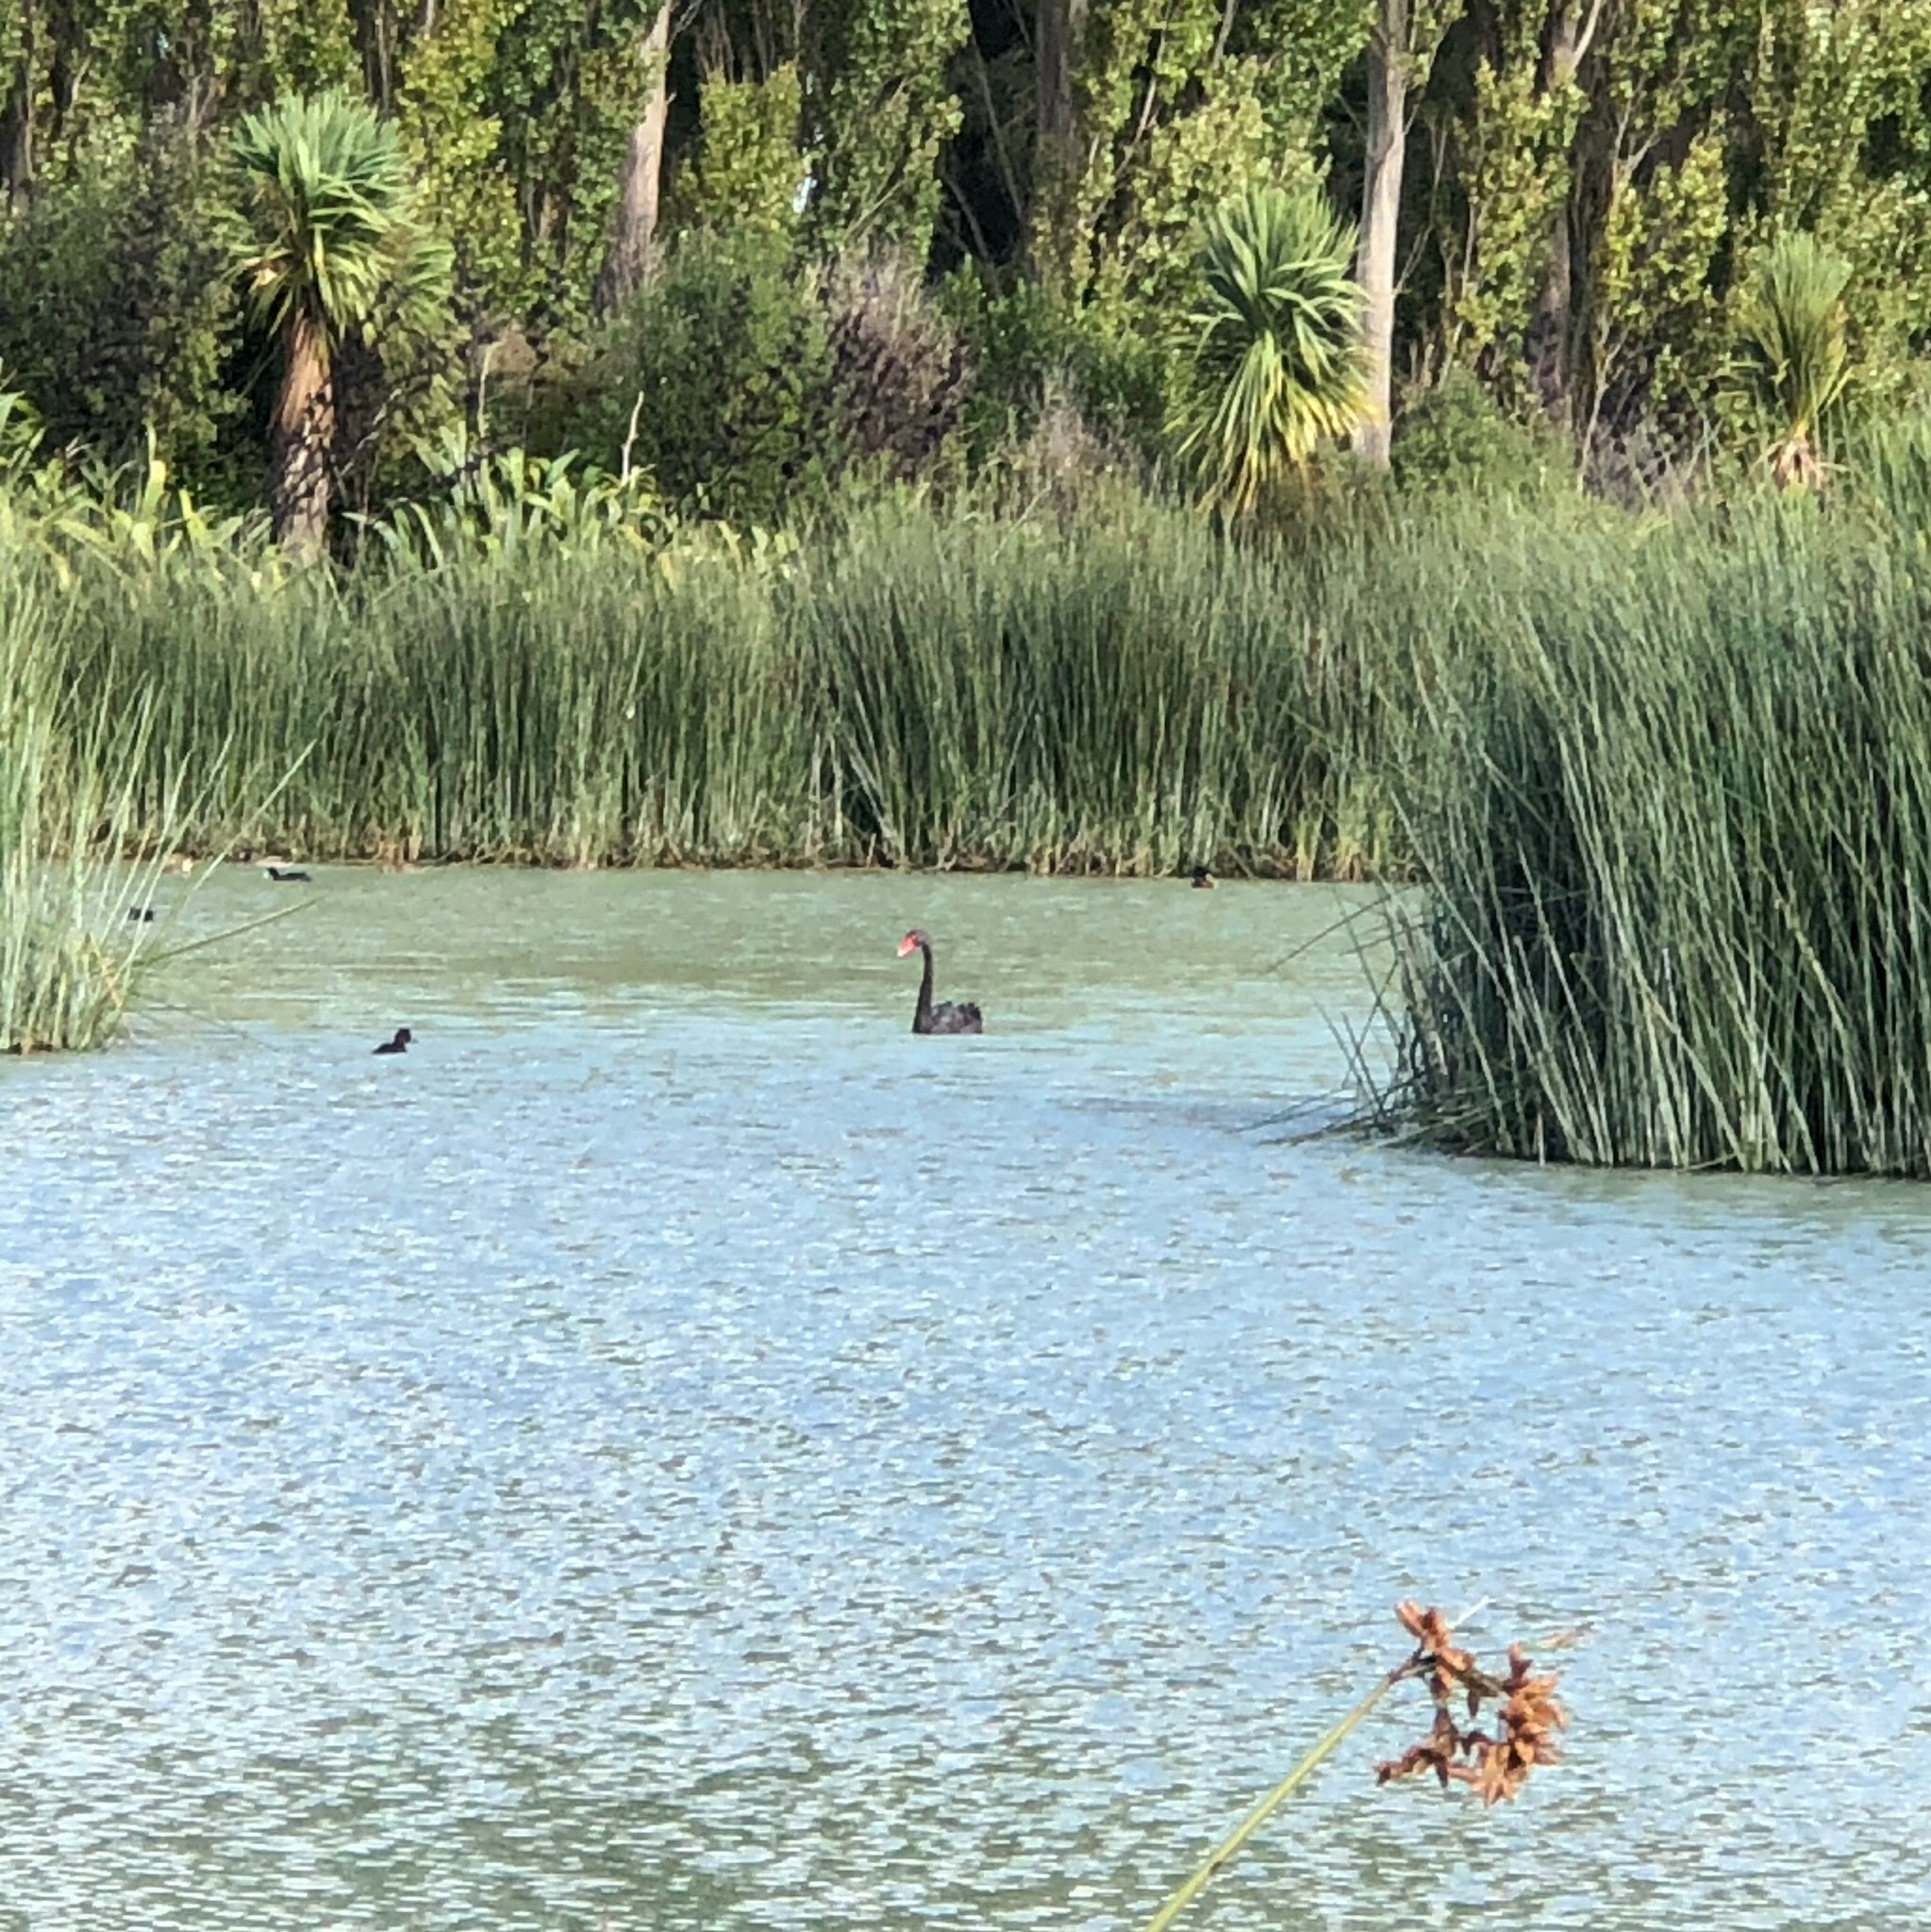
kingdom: Animalia
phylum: Chordata
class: Aves
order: Anseriformes
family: Anatidae
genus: Cygnus
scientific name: Cygnus atratus
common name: Black swan
